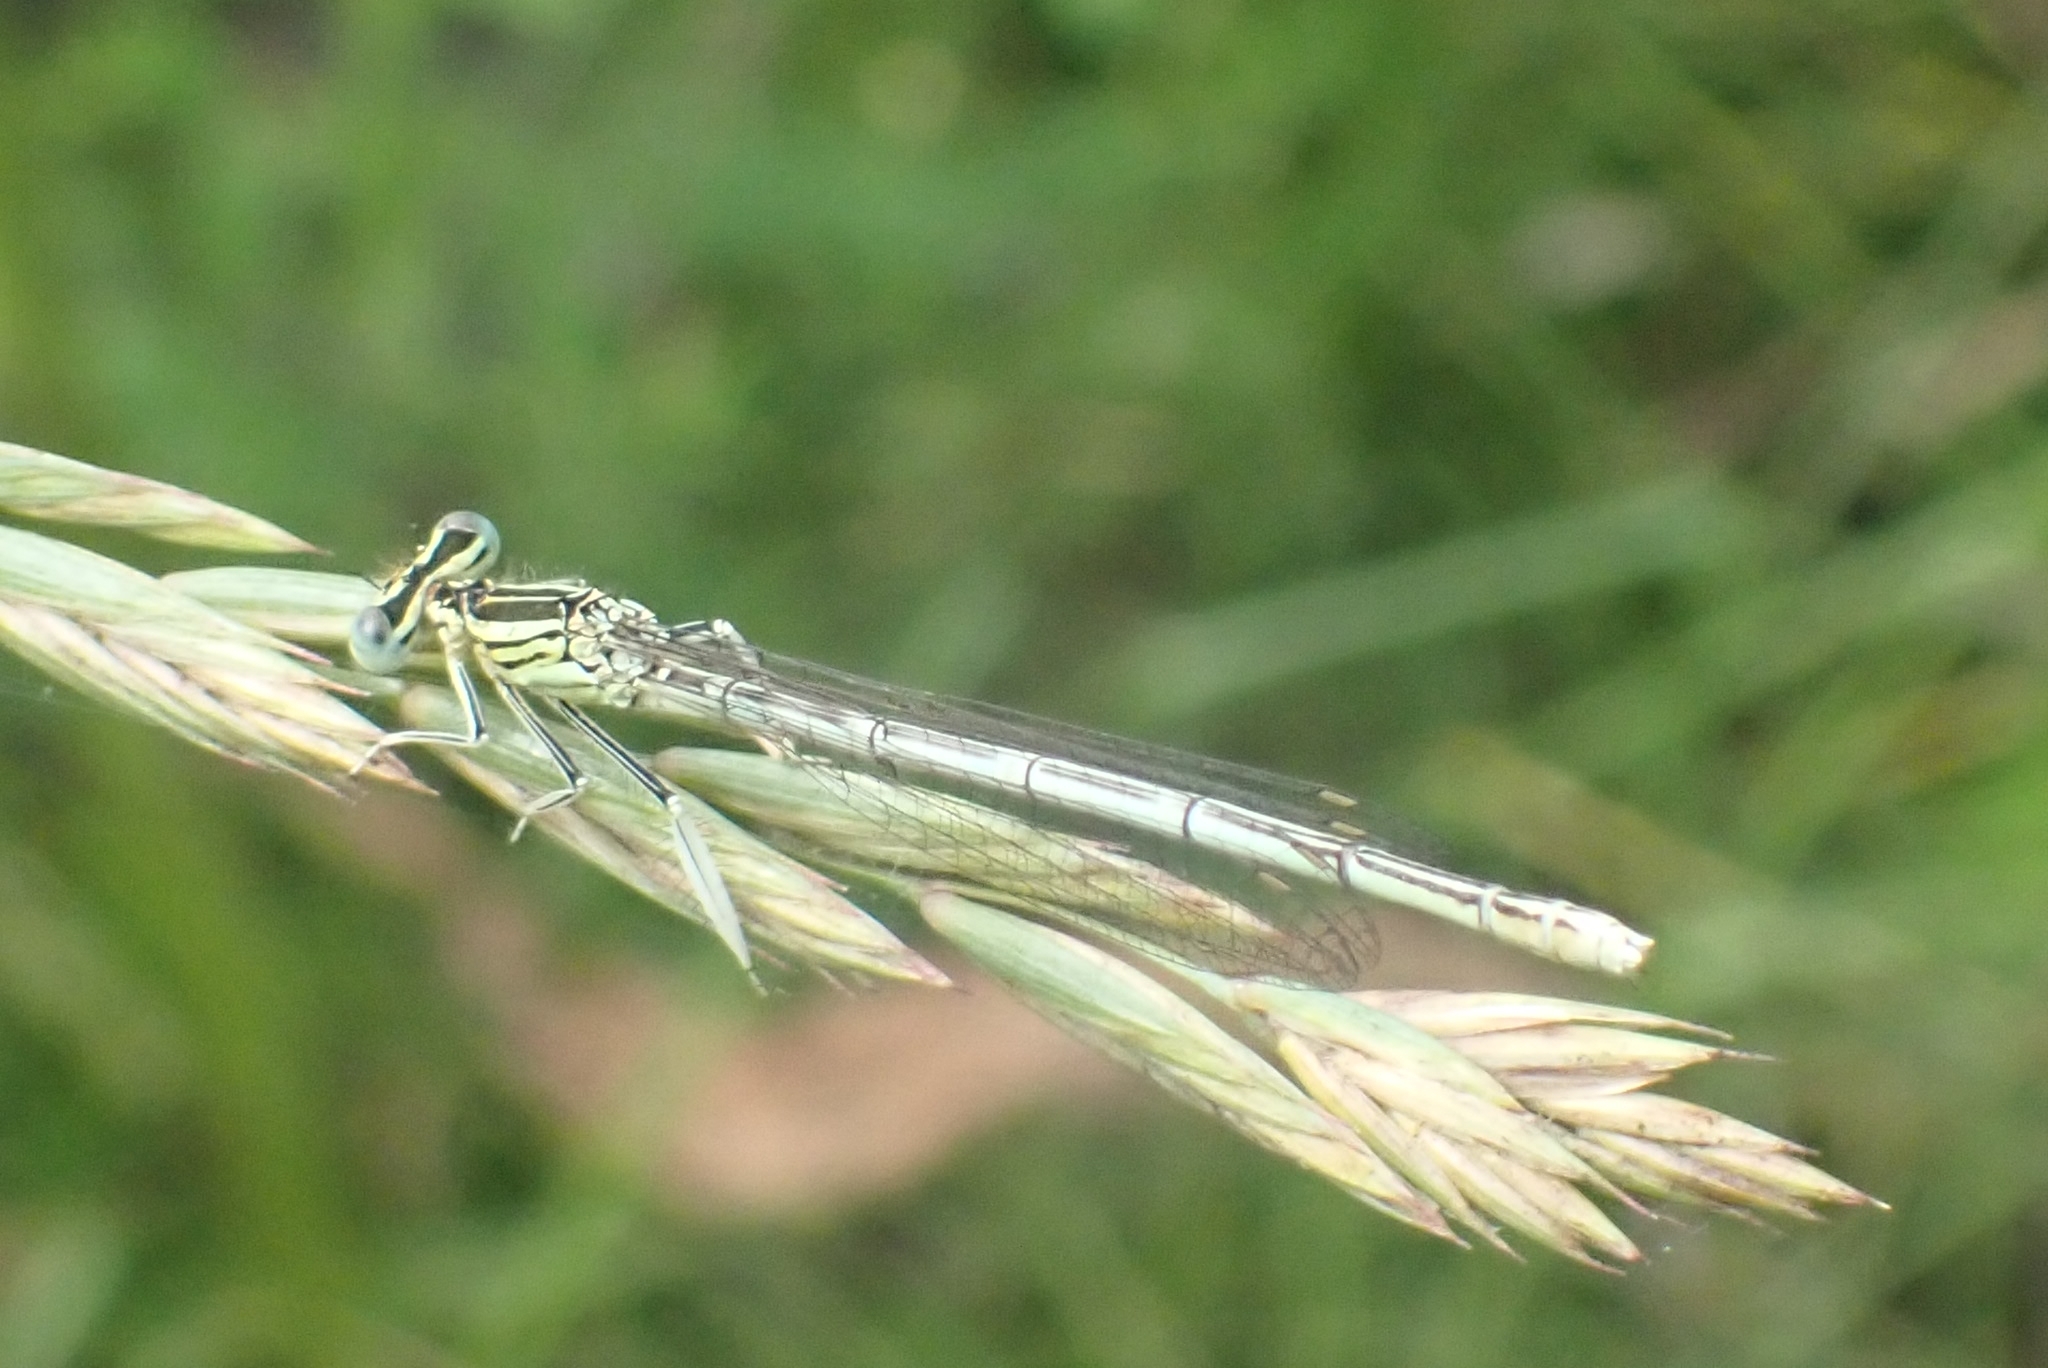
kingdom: Animalia
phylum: Arthropoda
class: Insecta
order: Odonata
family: Platycnemididae
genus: Platycnemis
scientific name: Platycnemis pennipes
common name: White-legged damselfly
